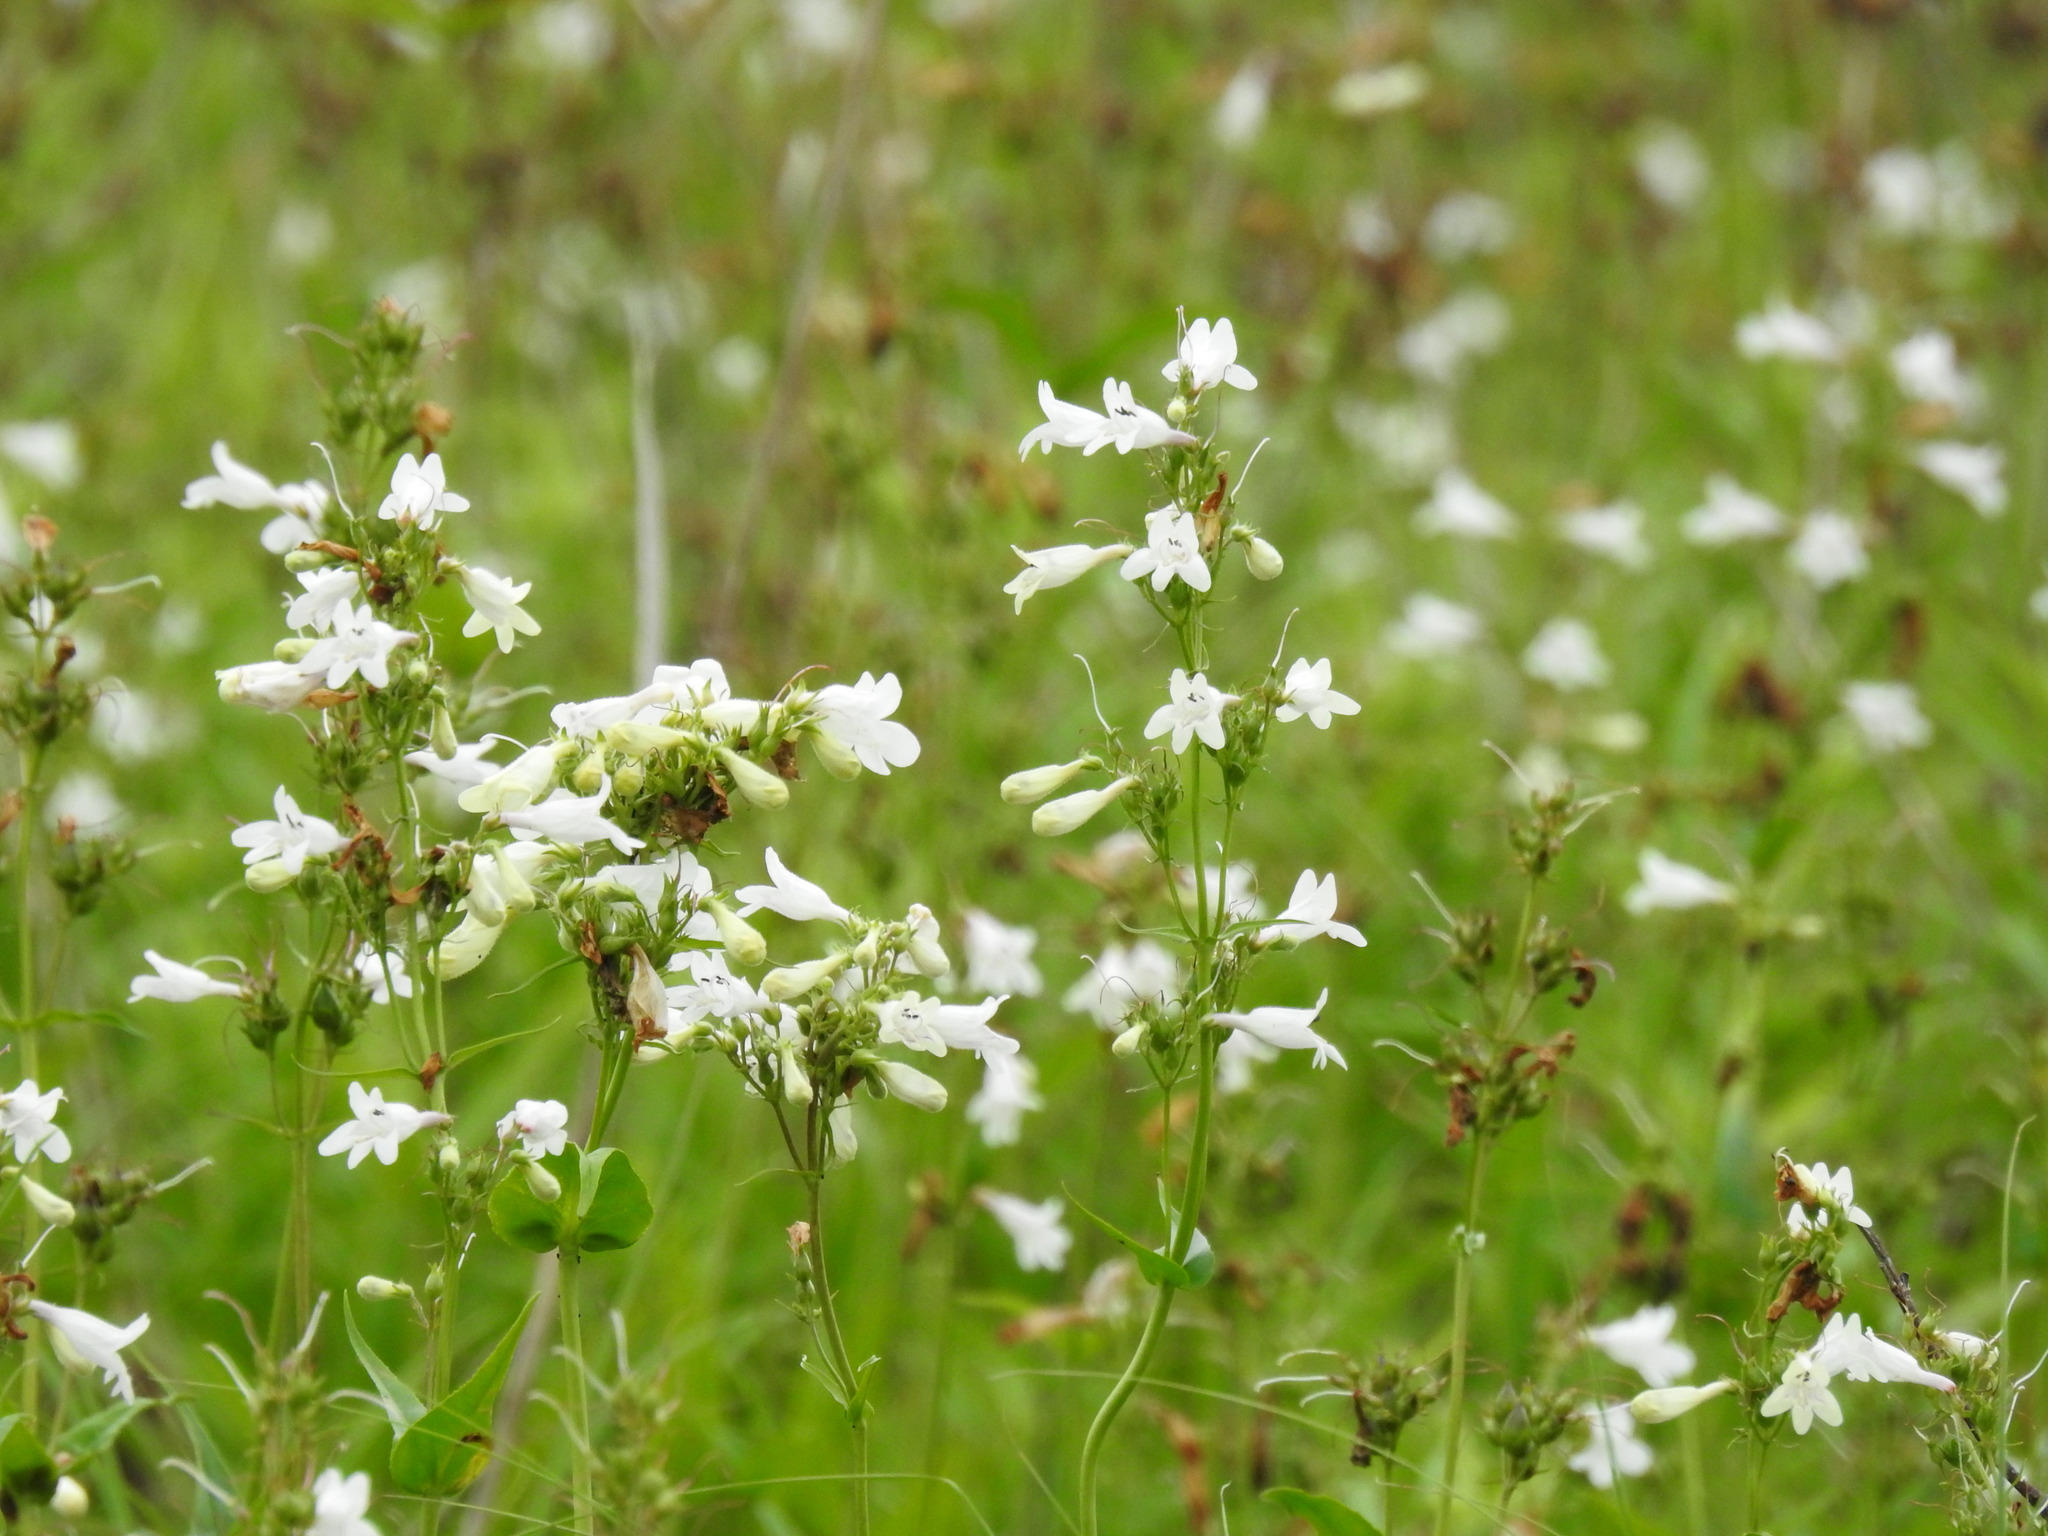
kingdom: Plantae
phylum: Tracheophyta
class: Magnoliopsida
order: Lamiales
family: Plantaginaceae
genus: Penstemon
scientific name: Penstemon digitalis
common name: Foxglove beardtongue
